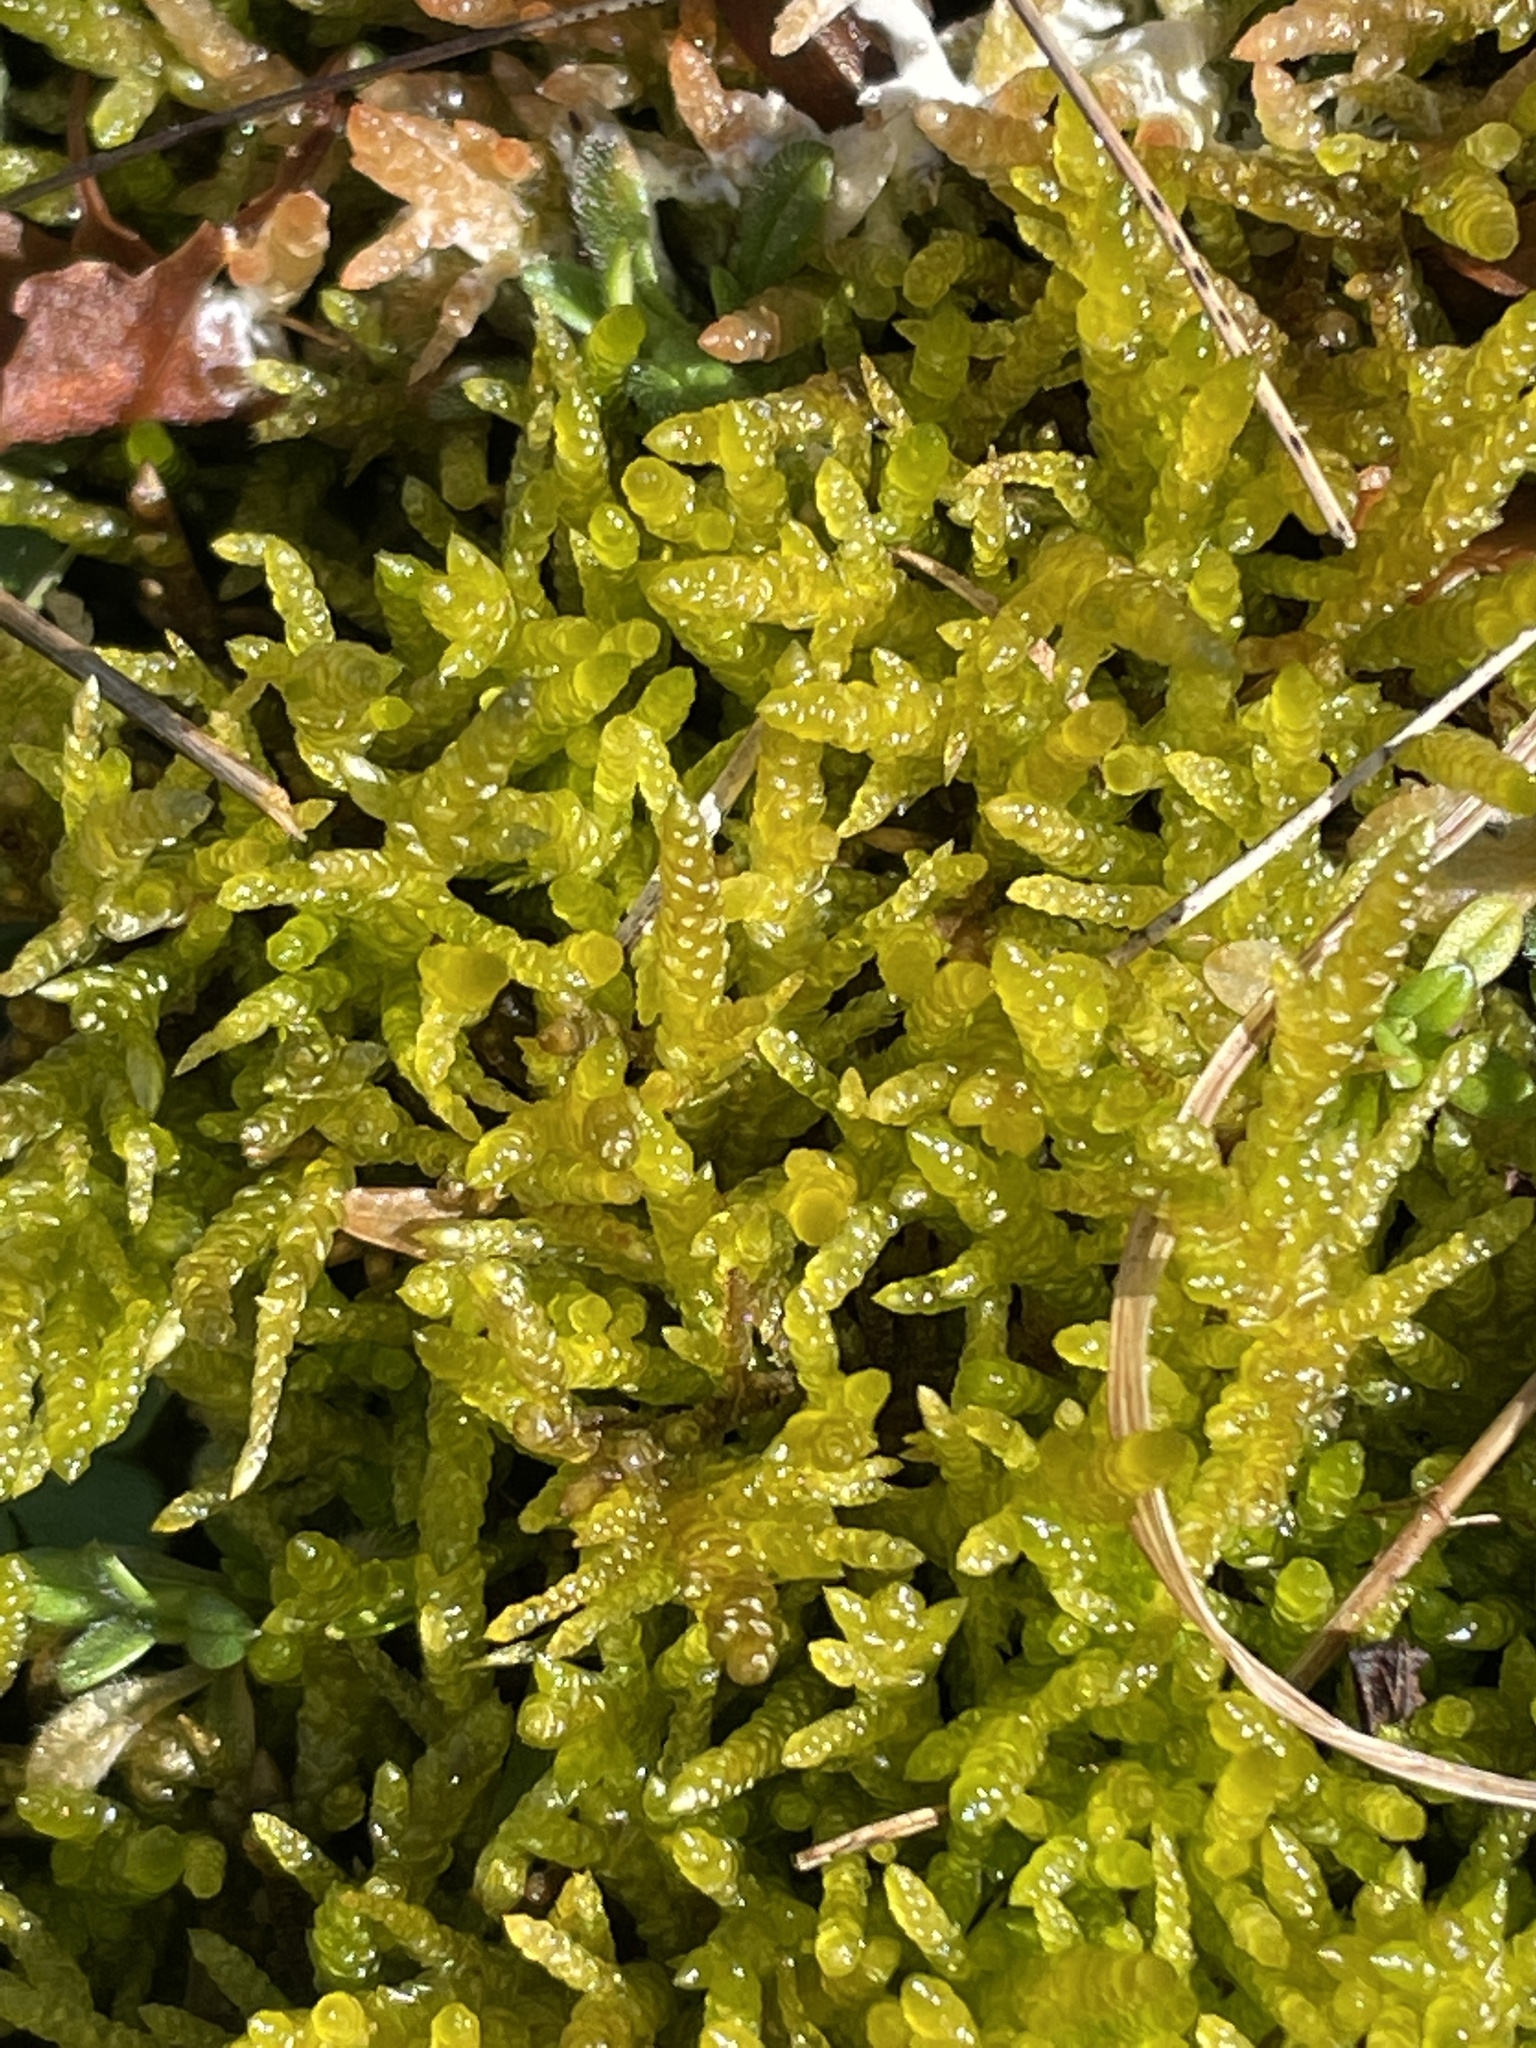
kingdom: Plantae
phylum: Bryophyta
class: Bryopsida
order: Hypnales
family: Brachytheciaceae
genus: Pseudoscleropodium
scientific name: Pseudoscleropodium purum
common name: Neat feather-moss
